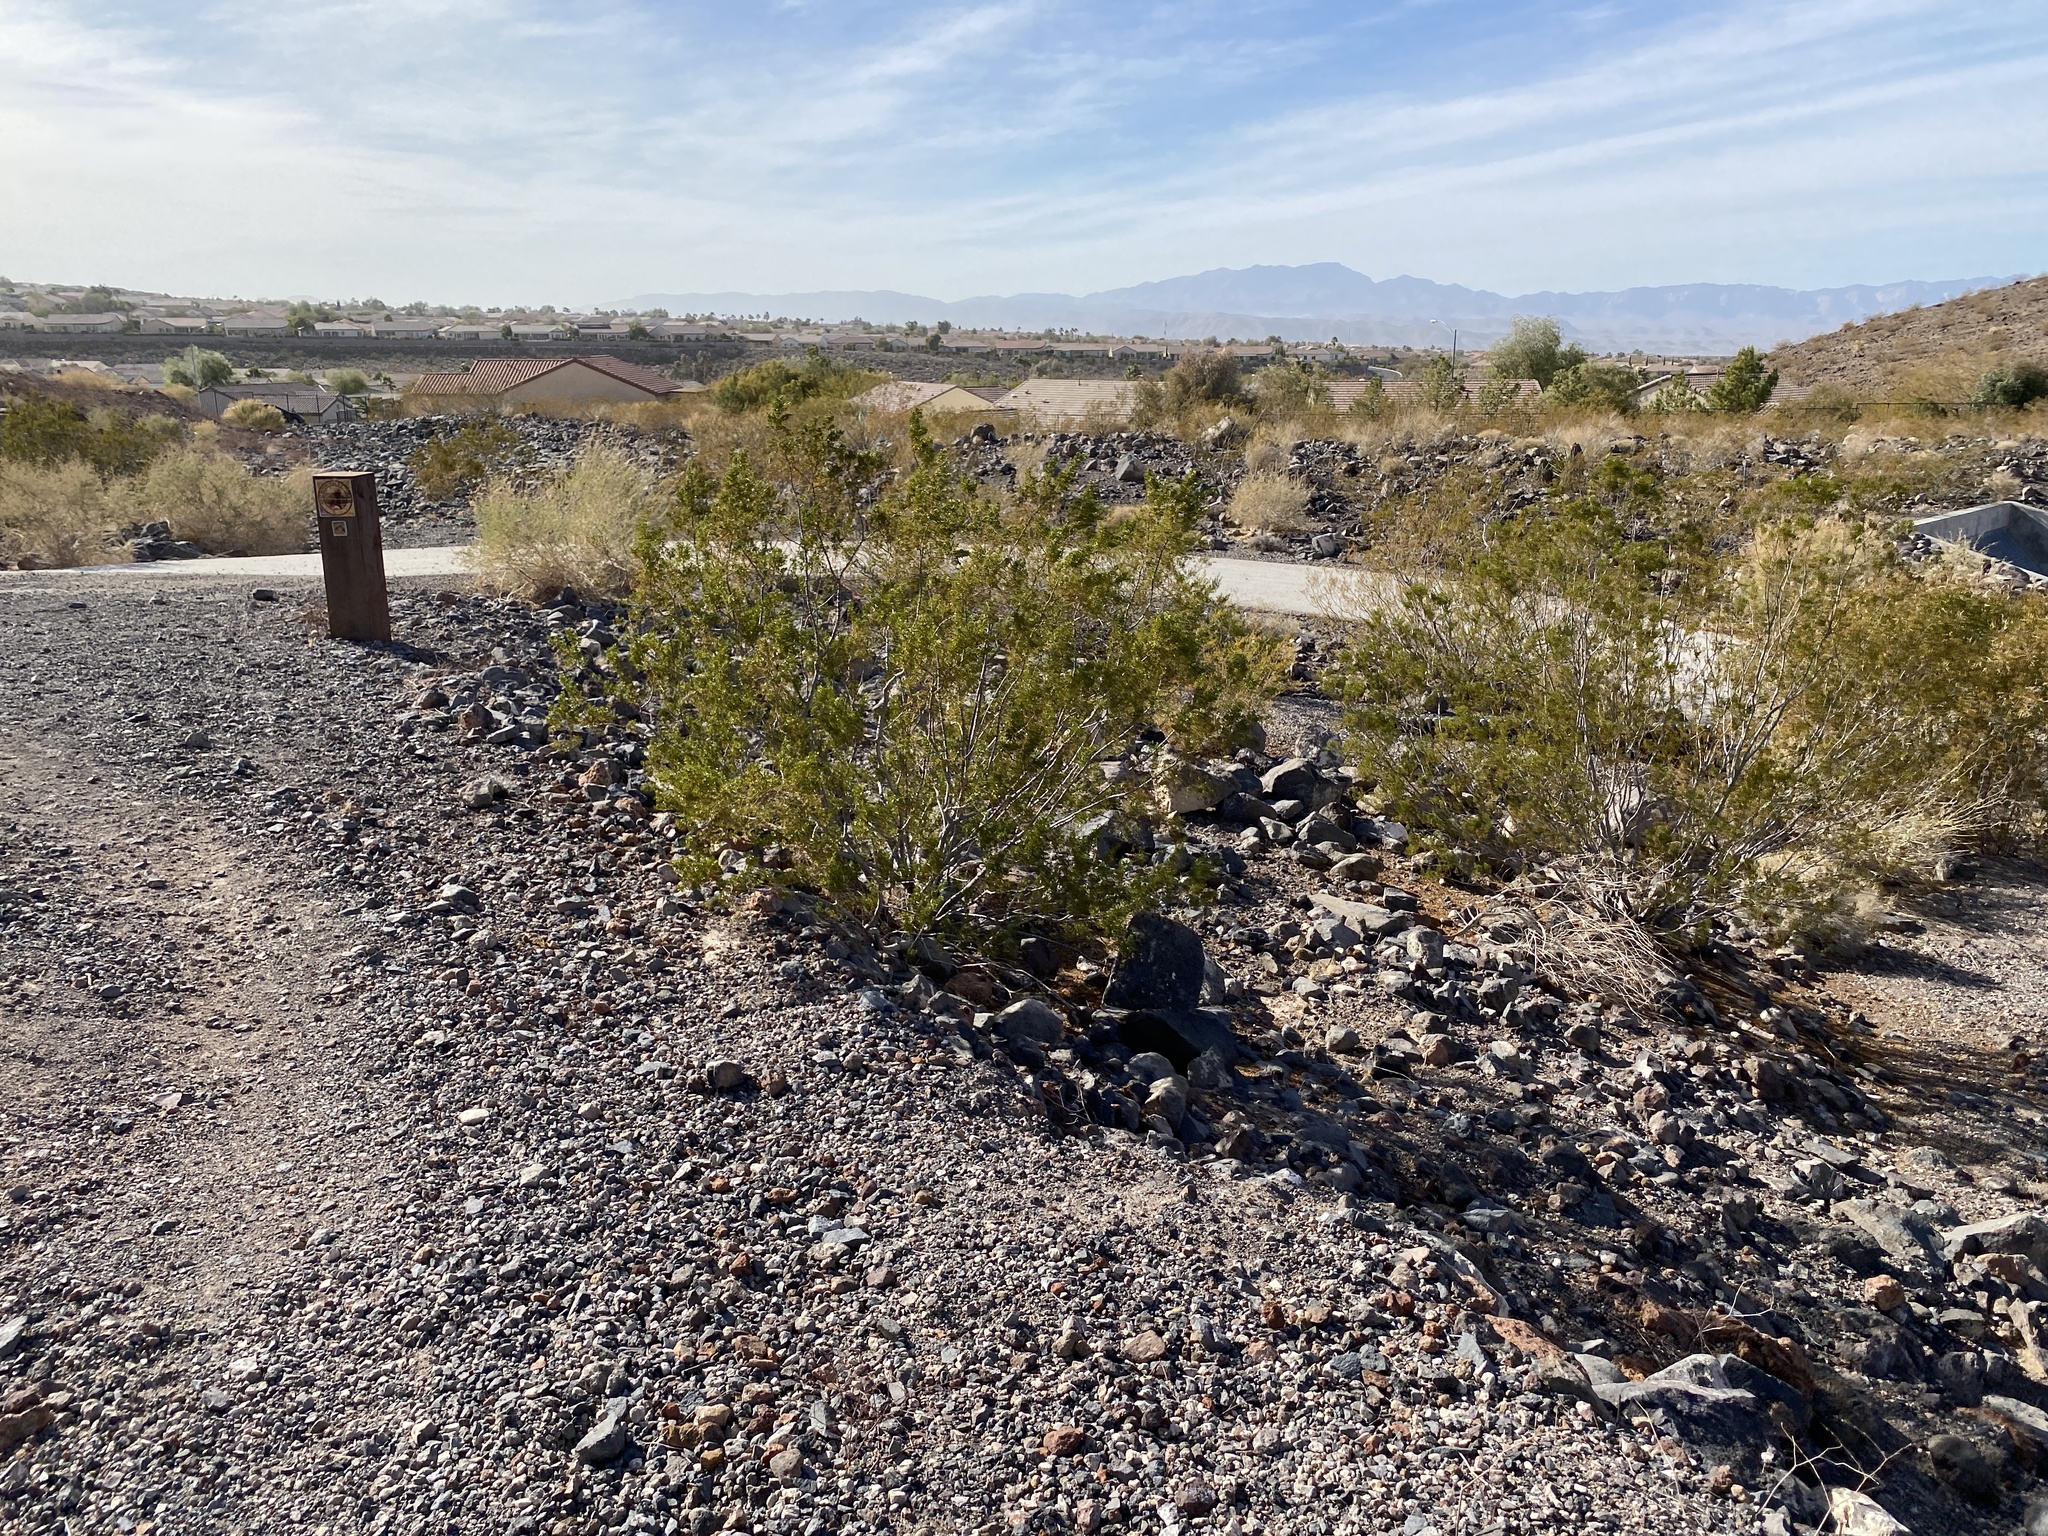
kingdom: Plantae
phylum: Tracheophyta
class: Magnoliopsida
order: Zygophyllales
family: Zygophyllaceae
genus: Larrea
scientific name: Larrea tridentata
